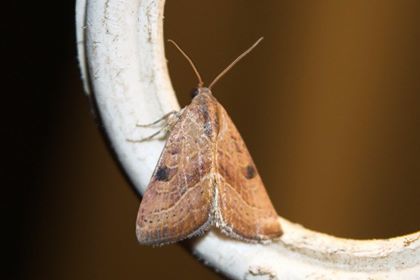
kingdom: Animalia
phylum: Arthropoda
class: Insecta
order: Lepidoptera
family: Noctuidae
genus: Galgula
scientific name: Galgula partita
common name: Wedgeling
